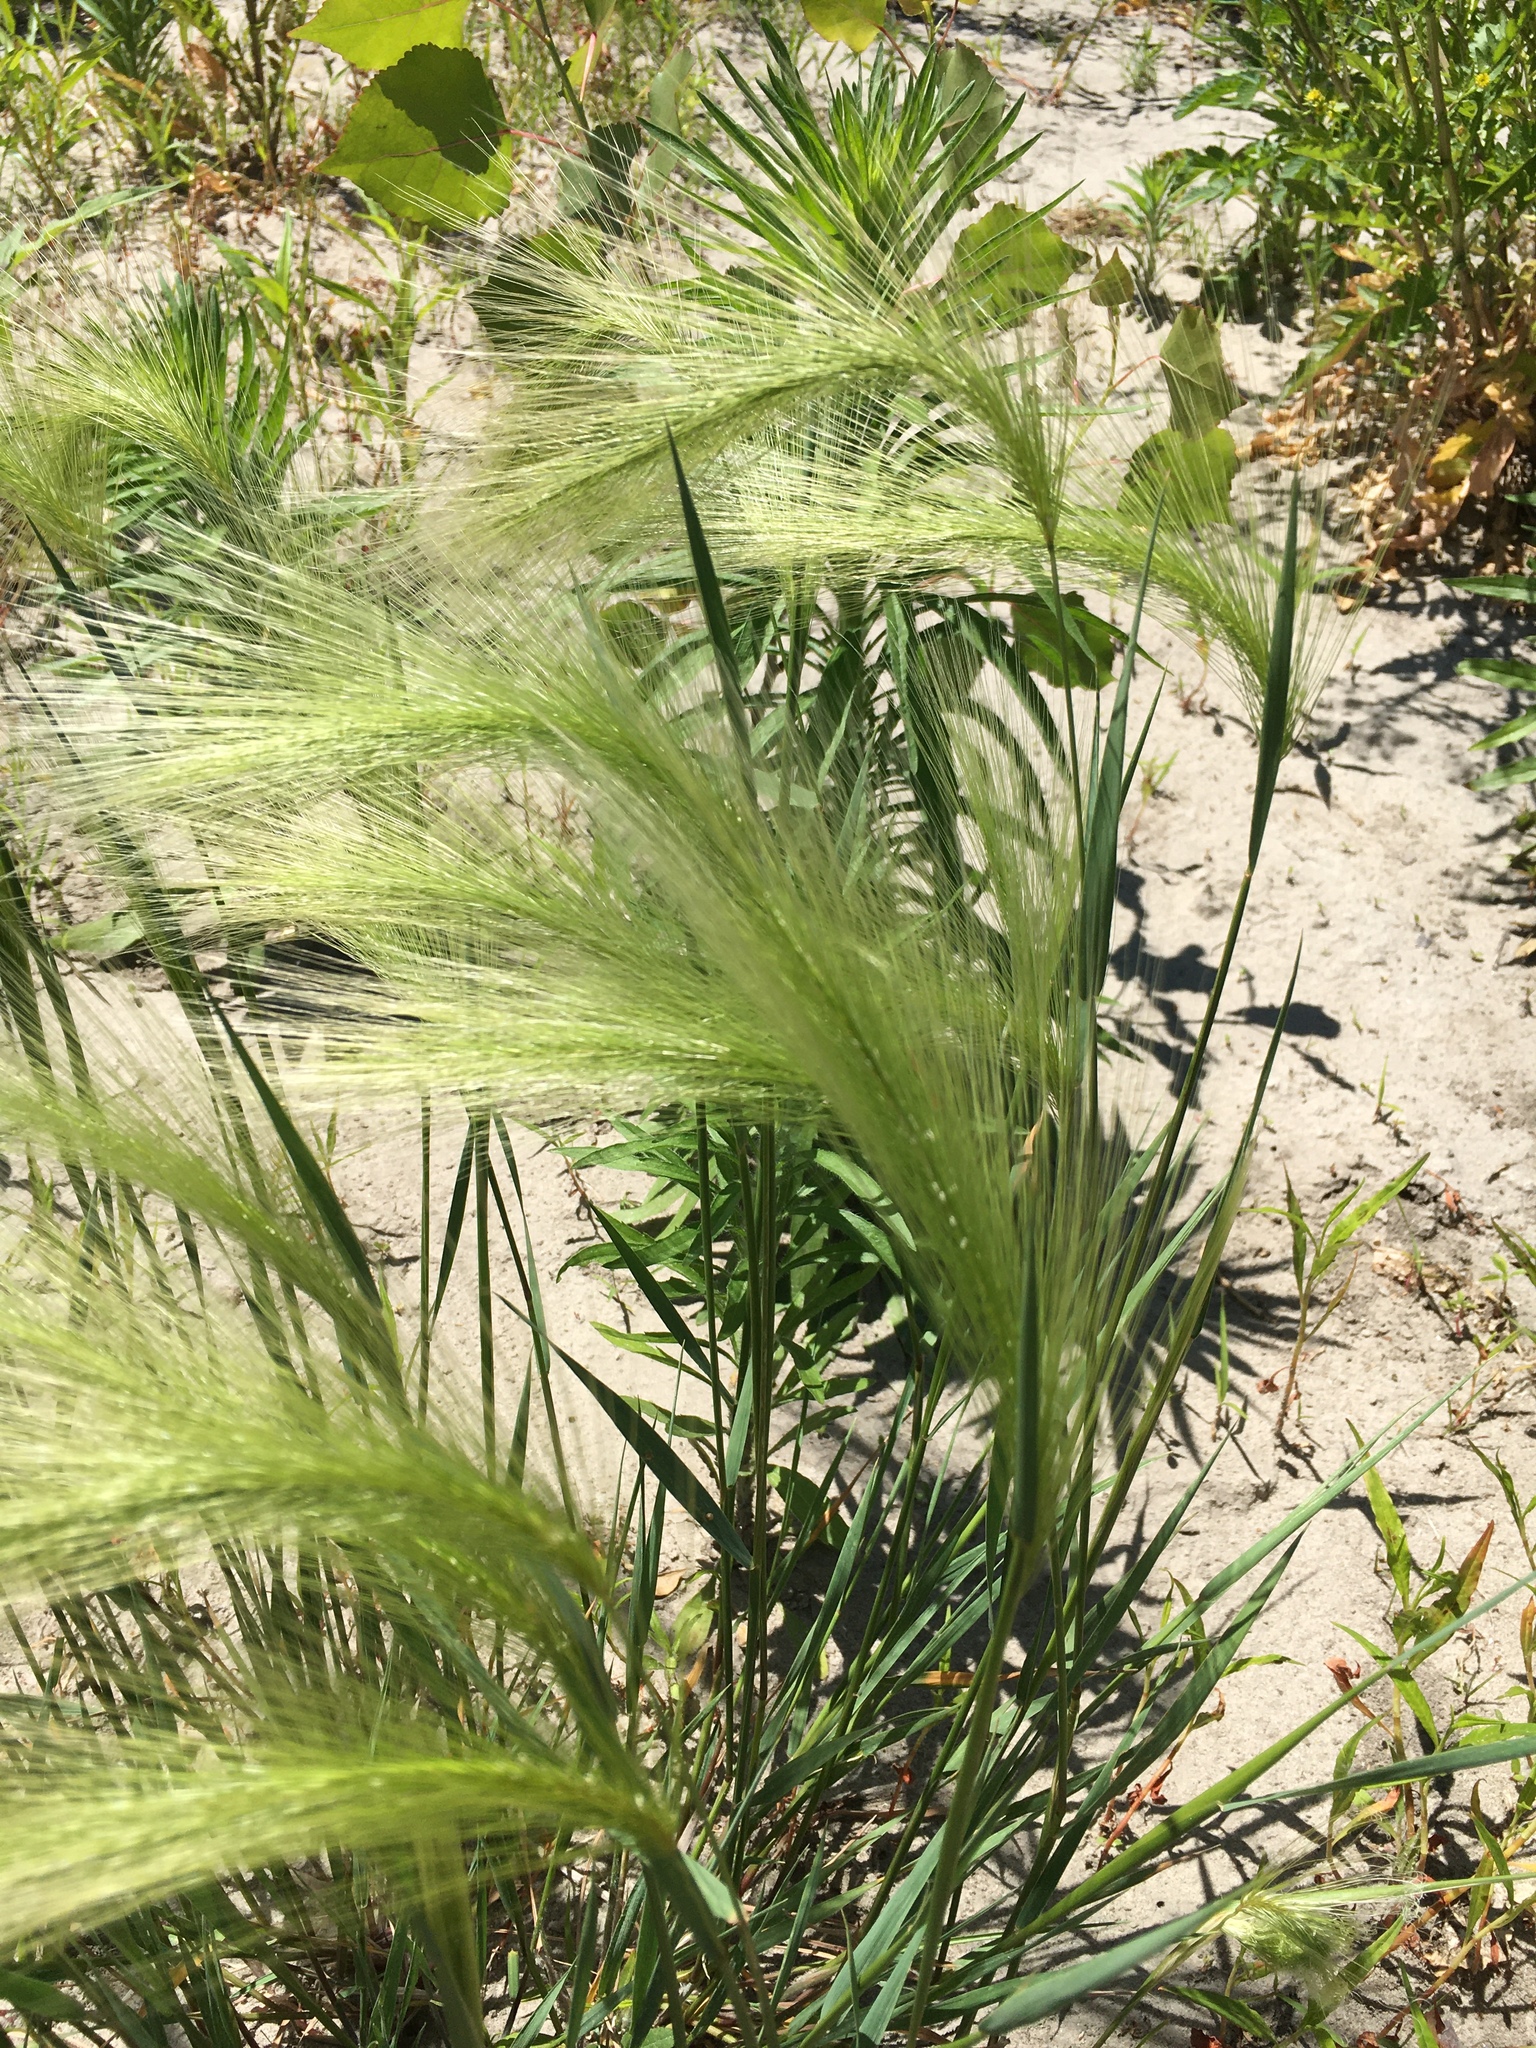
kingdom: Plantae
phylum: Tracheophyta
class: Liliopsida
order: Poales
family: Poaceae
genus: Hordeum
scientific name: Hordeum jubatum
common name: Foxtail barley
